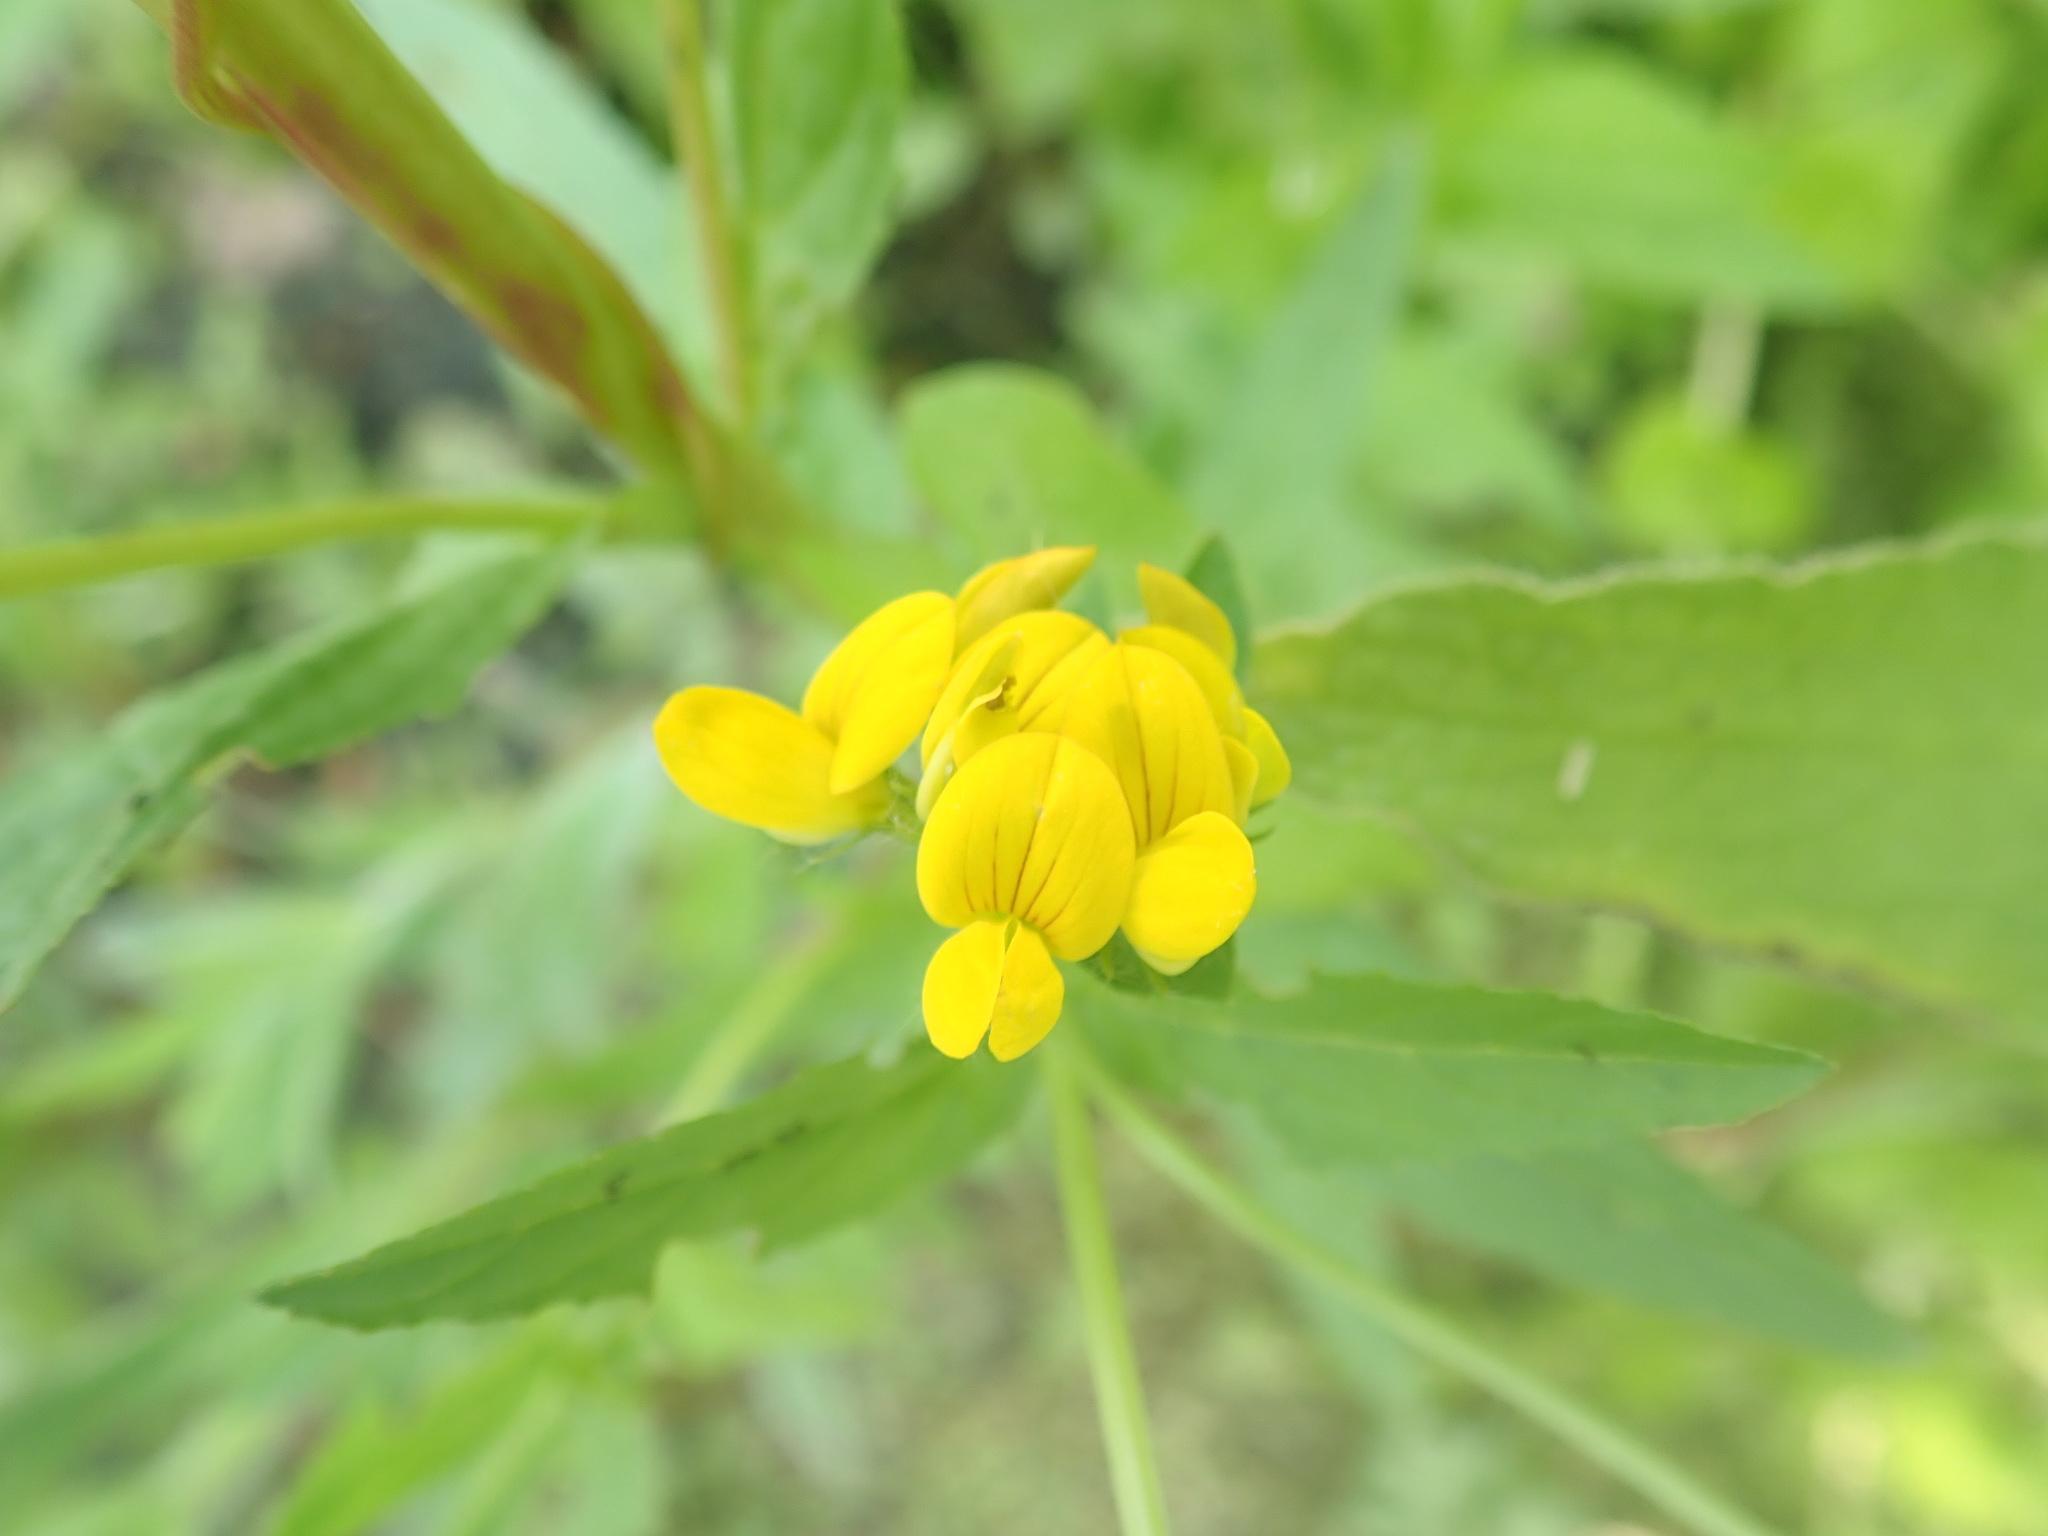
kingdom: Plantae
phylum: Tracheophyta
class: Magnoliopsida
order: Fabales
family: Fabaceae
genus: Lotus
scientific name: Lotus pedunculatus
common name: Greater birdsfoot-trefoil
